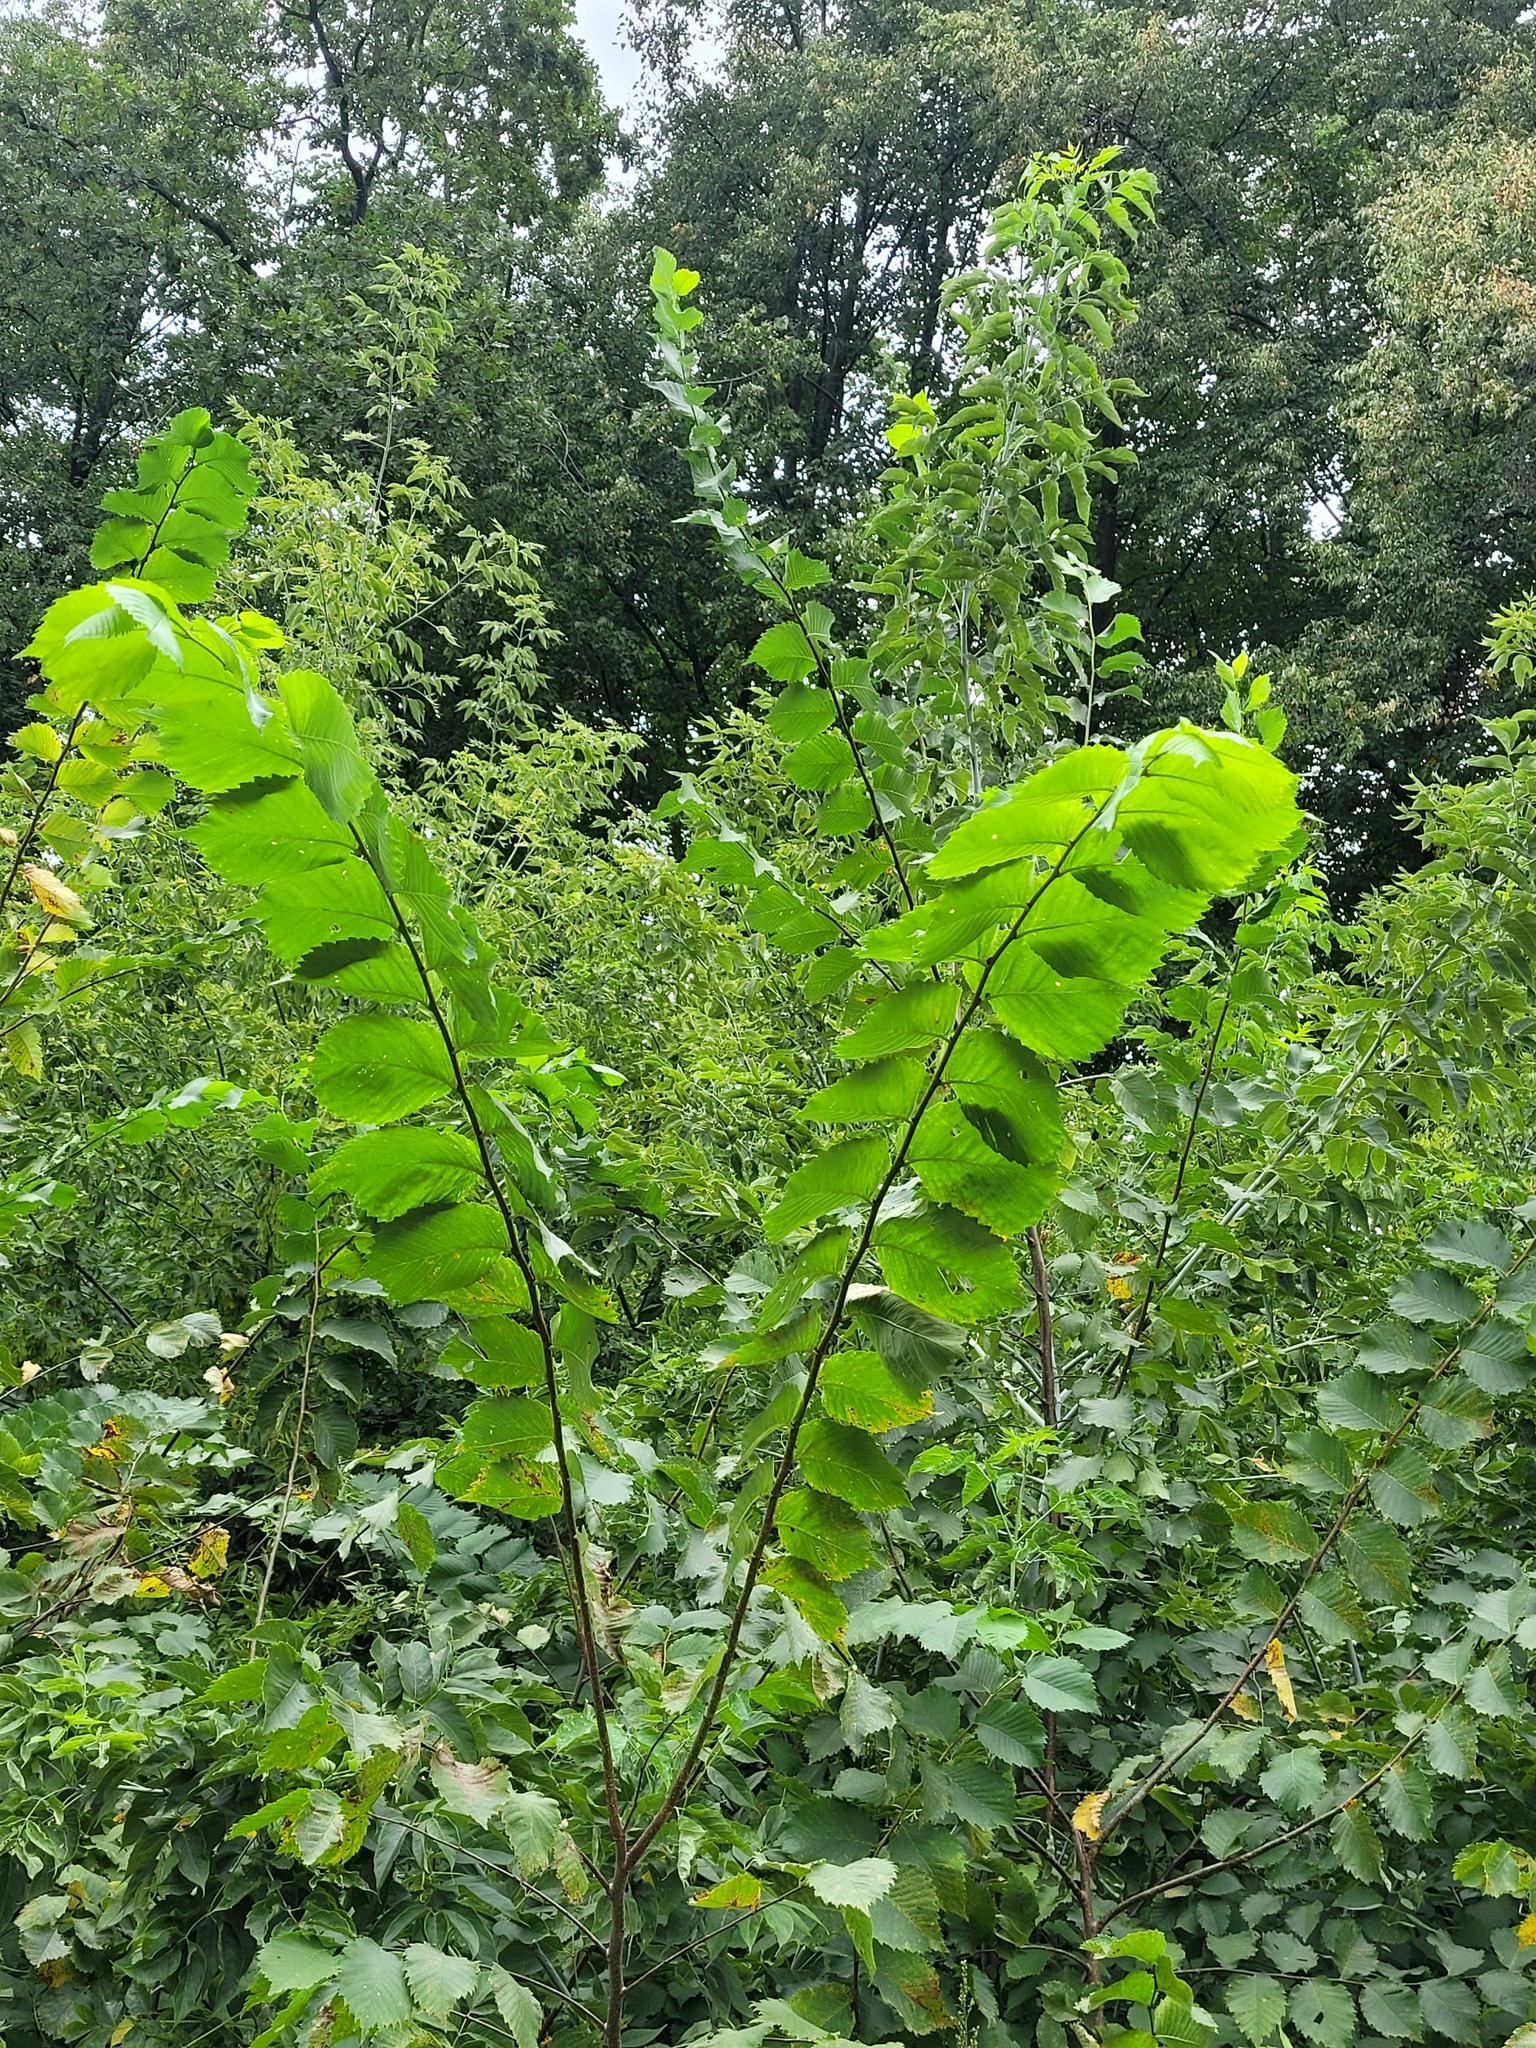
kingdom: Plantae
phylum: Tracheophyta
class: Magnoliopsida
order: Rosales
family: Ulmaceae
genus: Ulmus
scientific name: Ulmus laevis
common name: European white-elm
